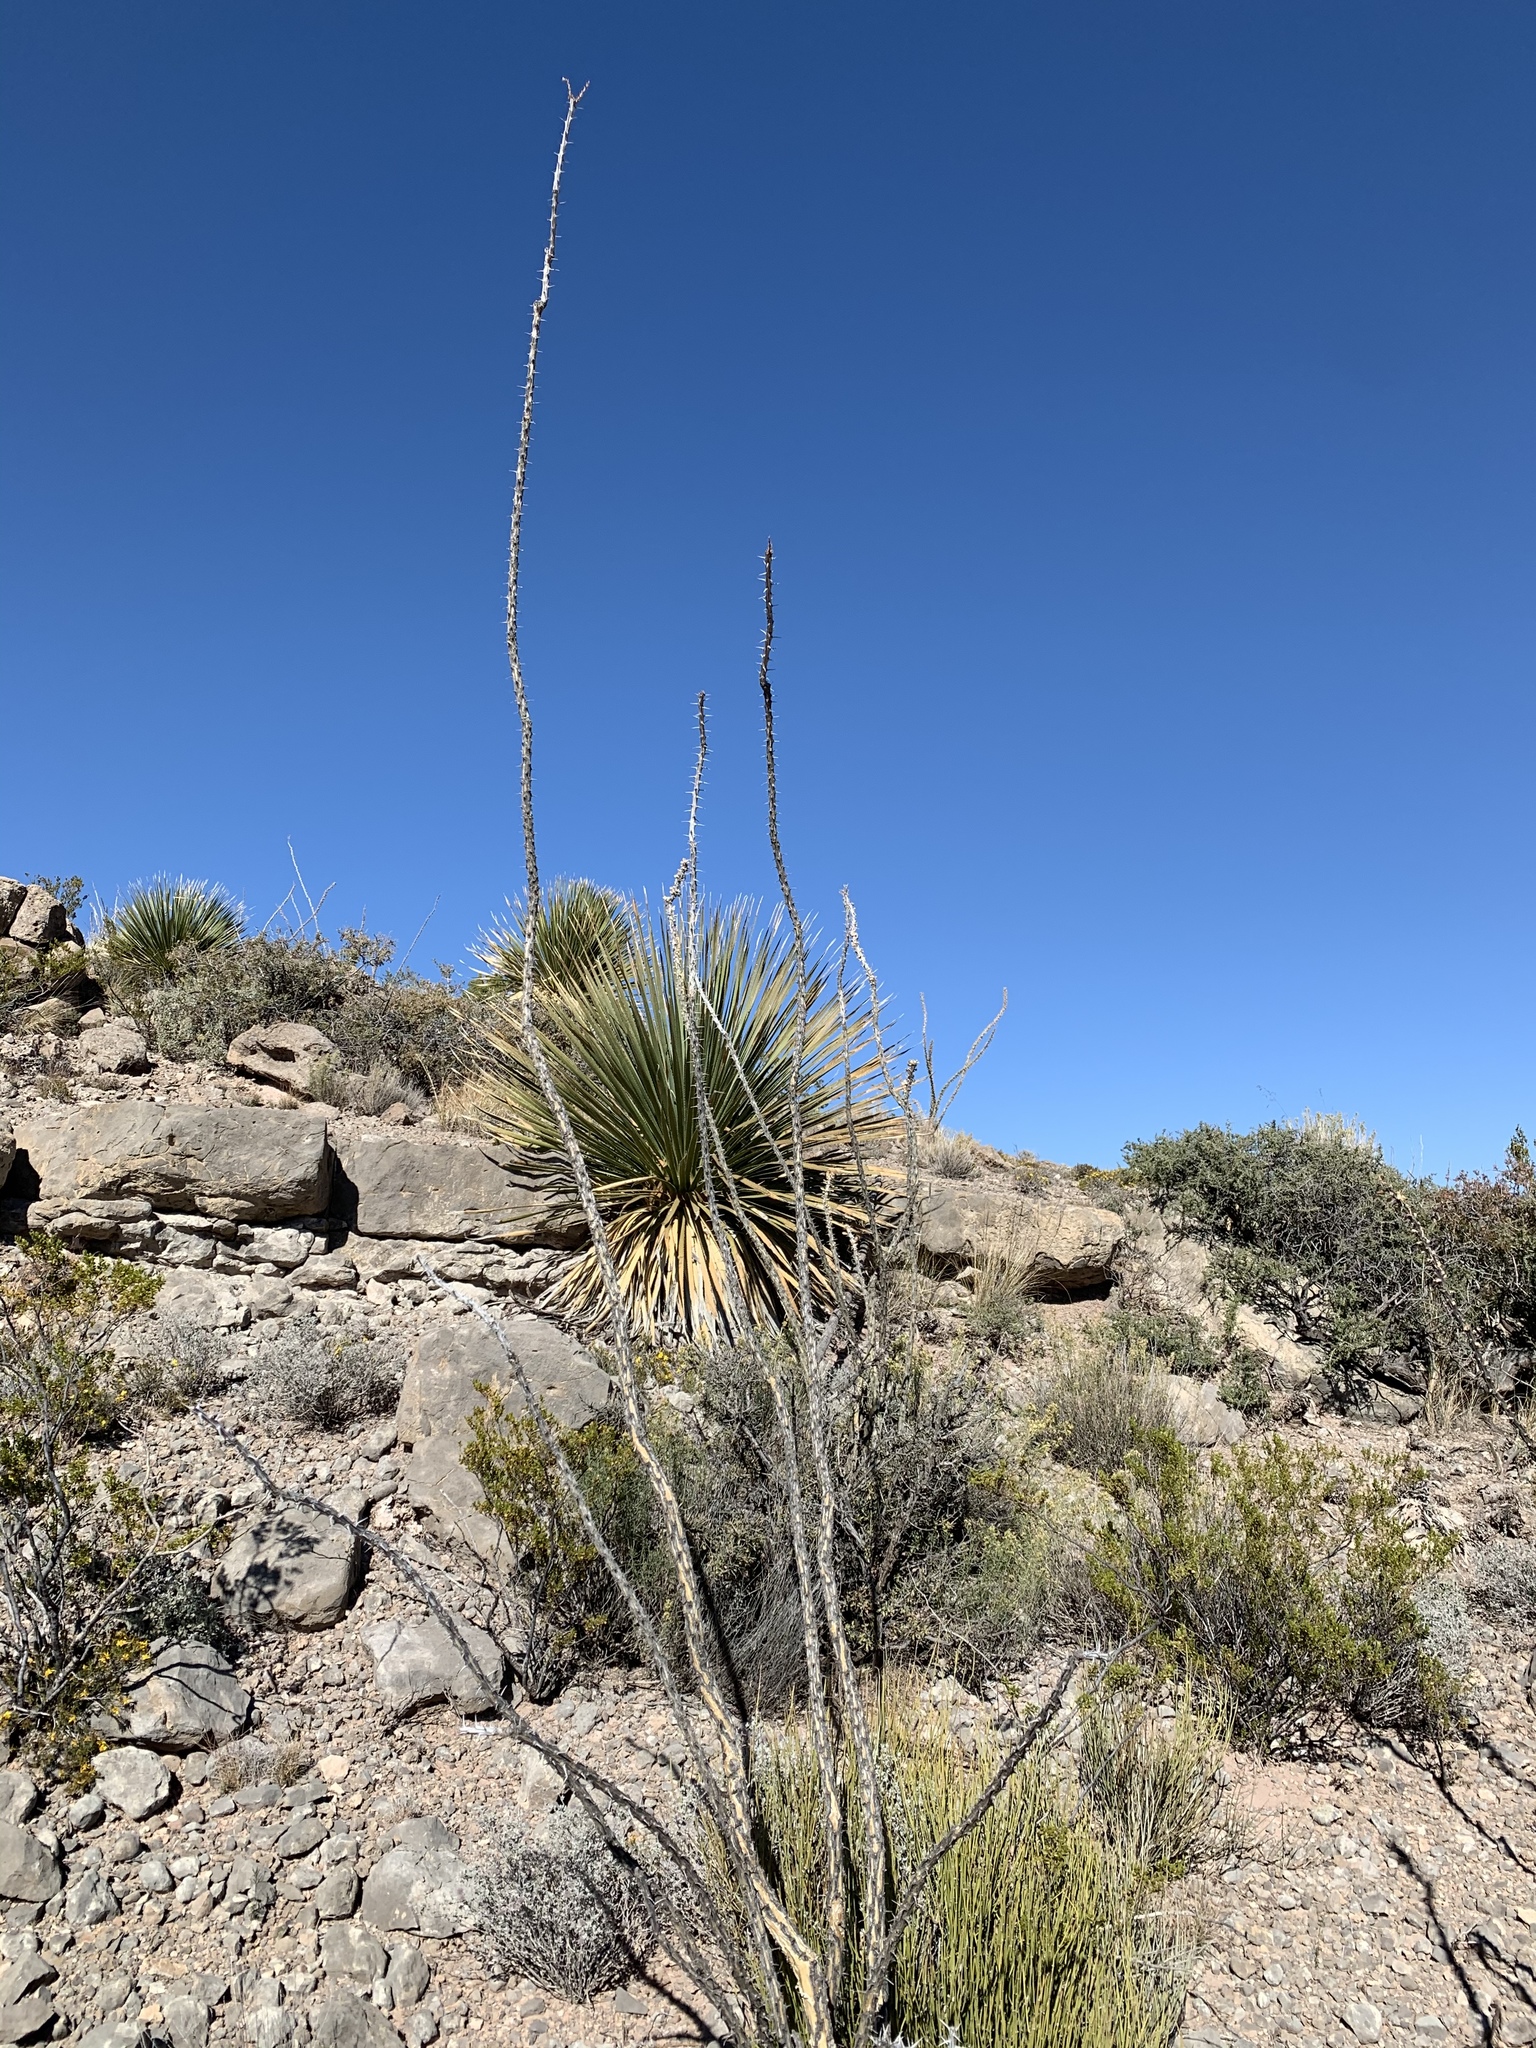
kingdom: Plantae
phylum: Tracheophyta
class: Magnoliopsida
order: Ericales
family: Fouquieriaceae
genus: Fouquieria
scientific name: Fouquieria splendens
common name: Vine-cactus
